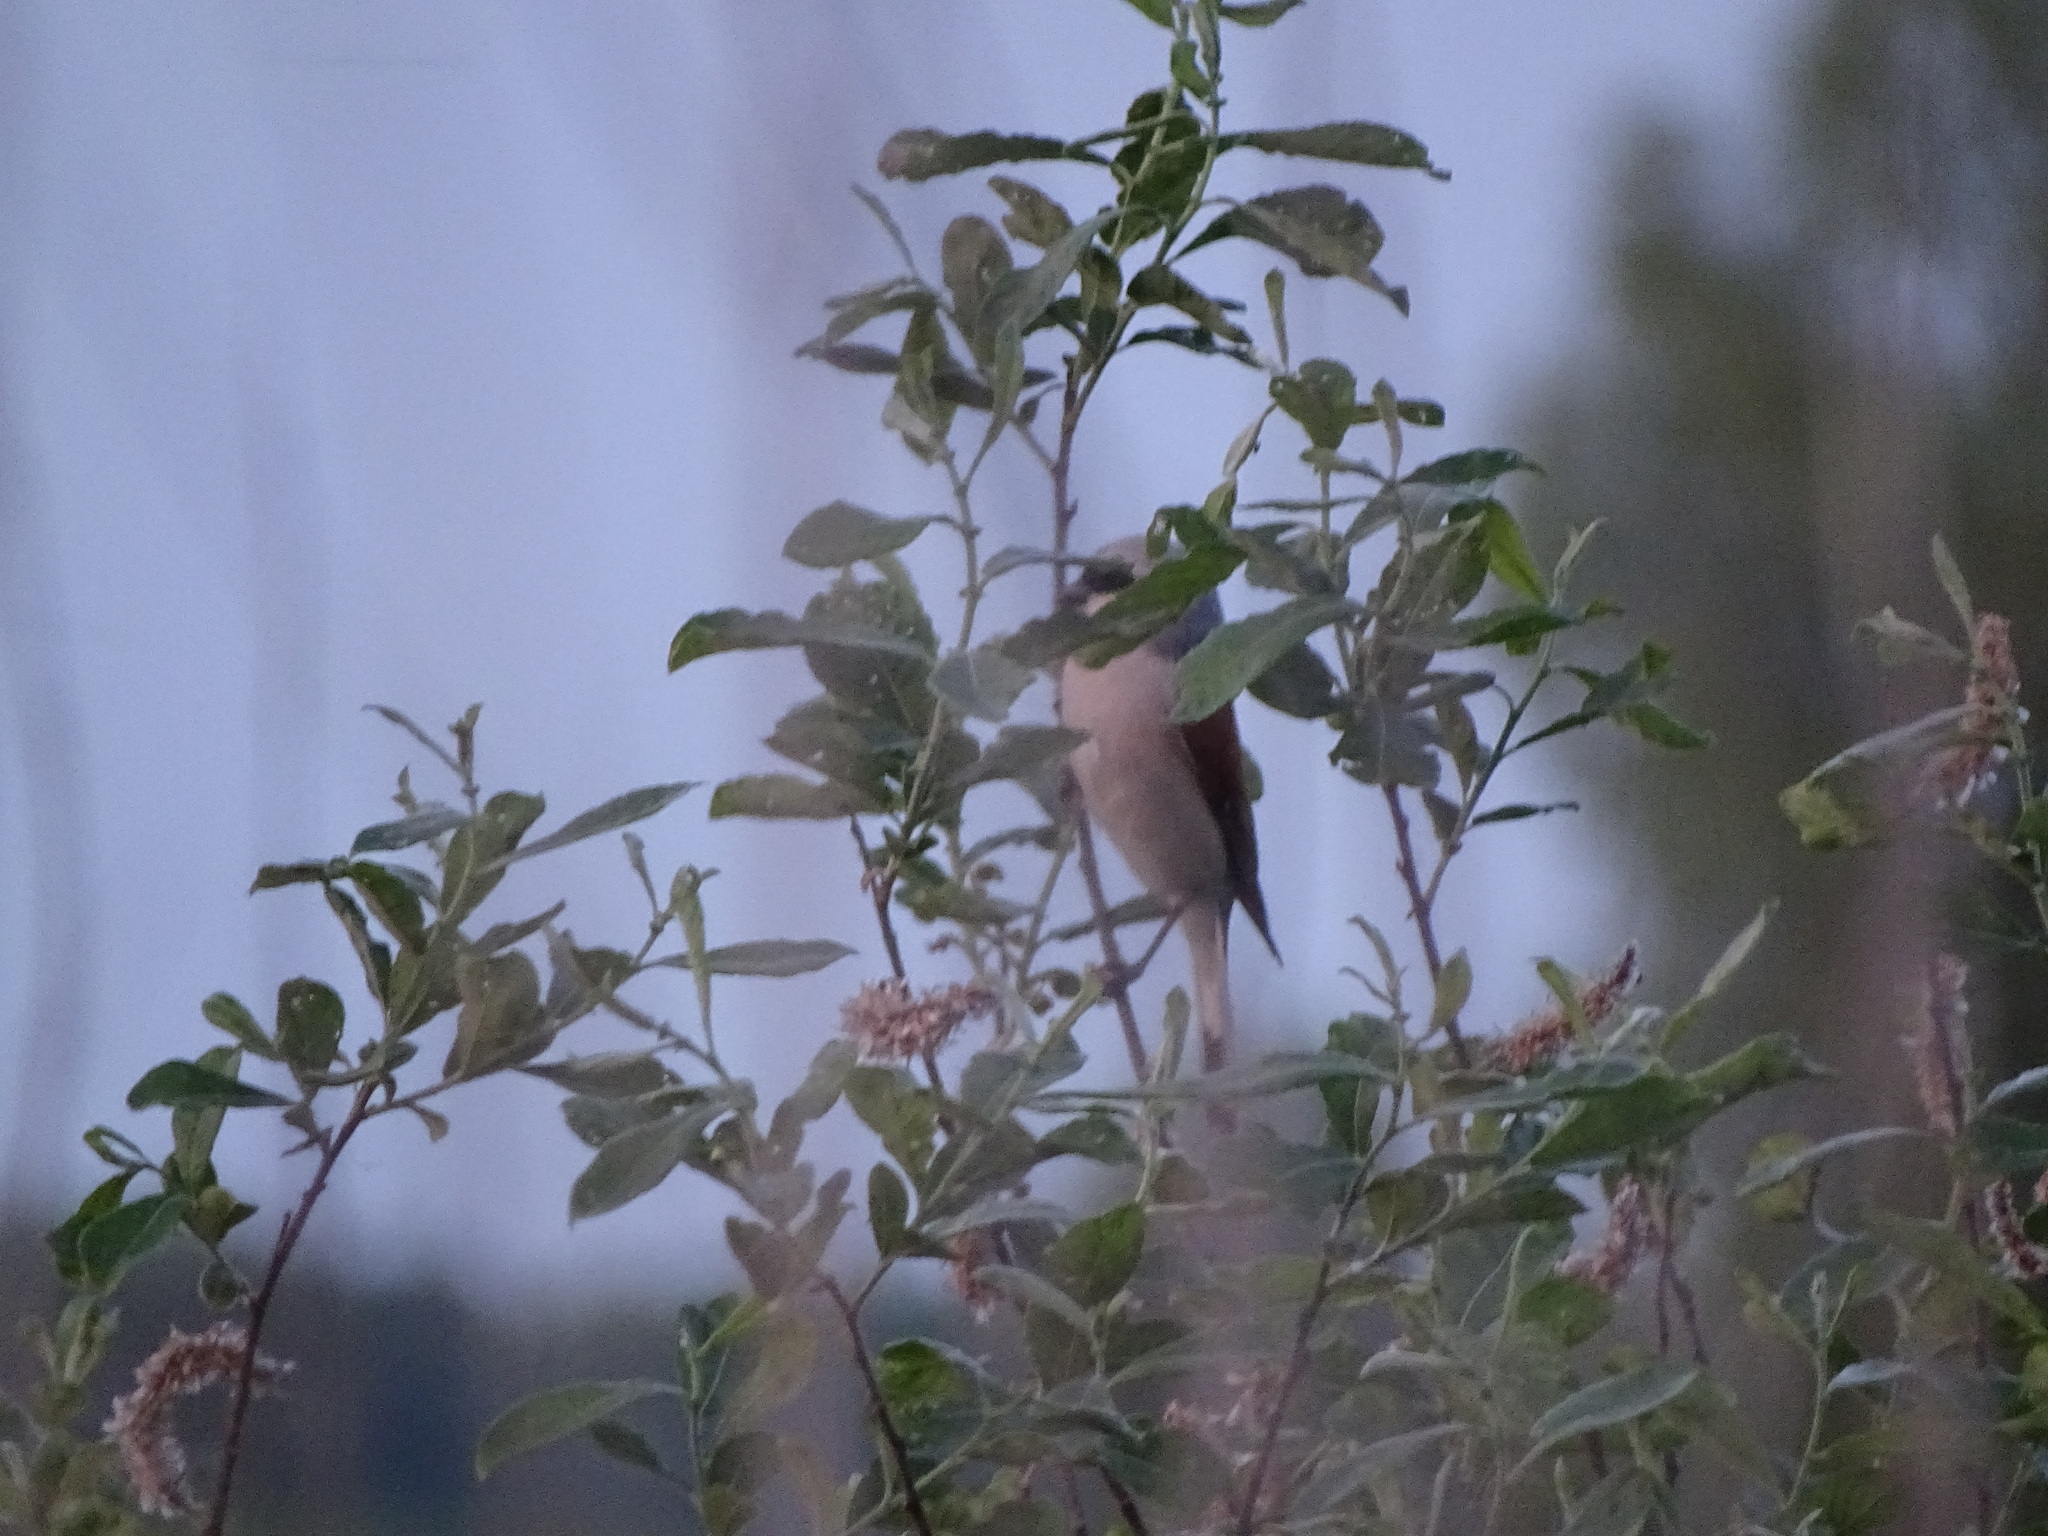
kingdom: Animalia
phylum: Chordata
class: Aves
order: Passeriformes
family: Laniidae
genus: Lanius
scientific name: Lanius collurio
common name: Red-backed shrike
